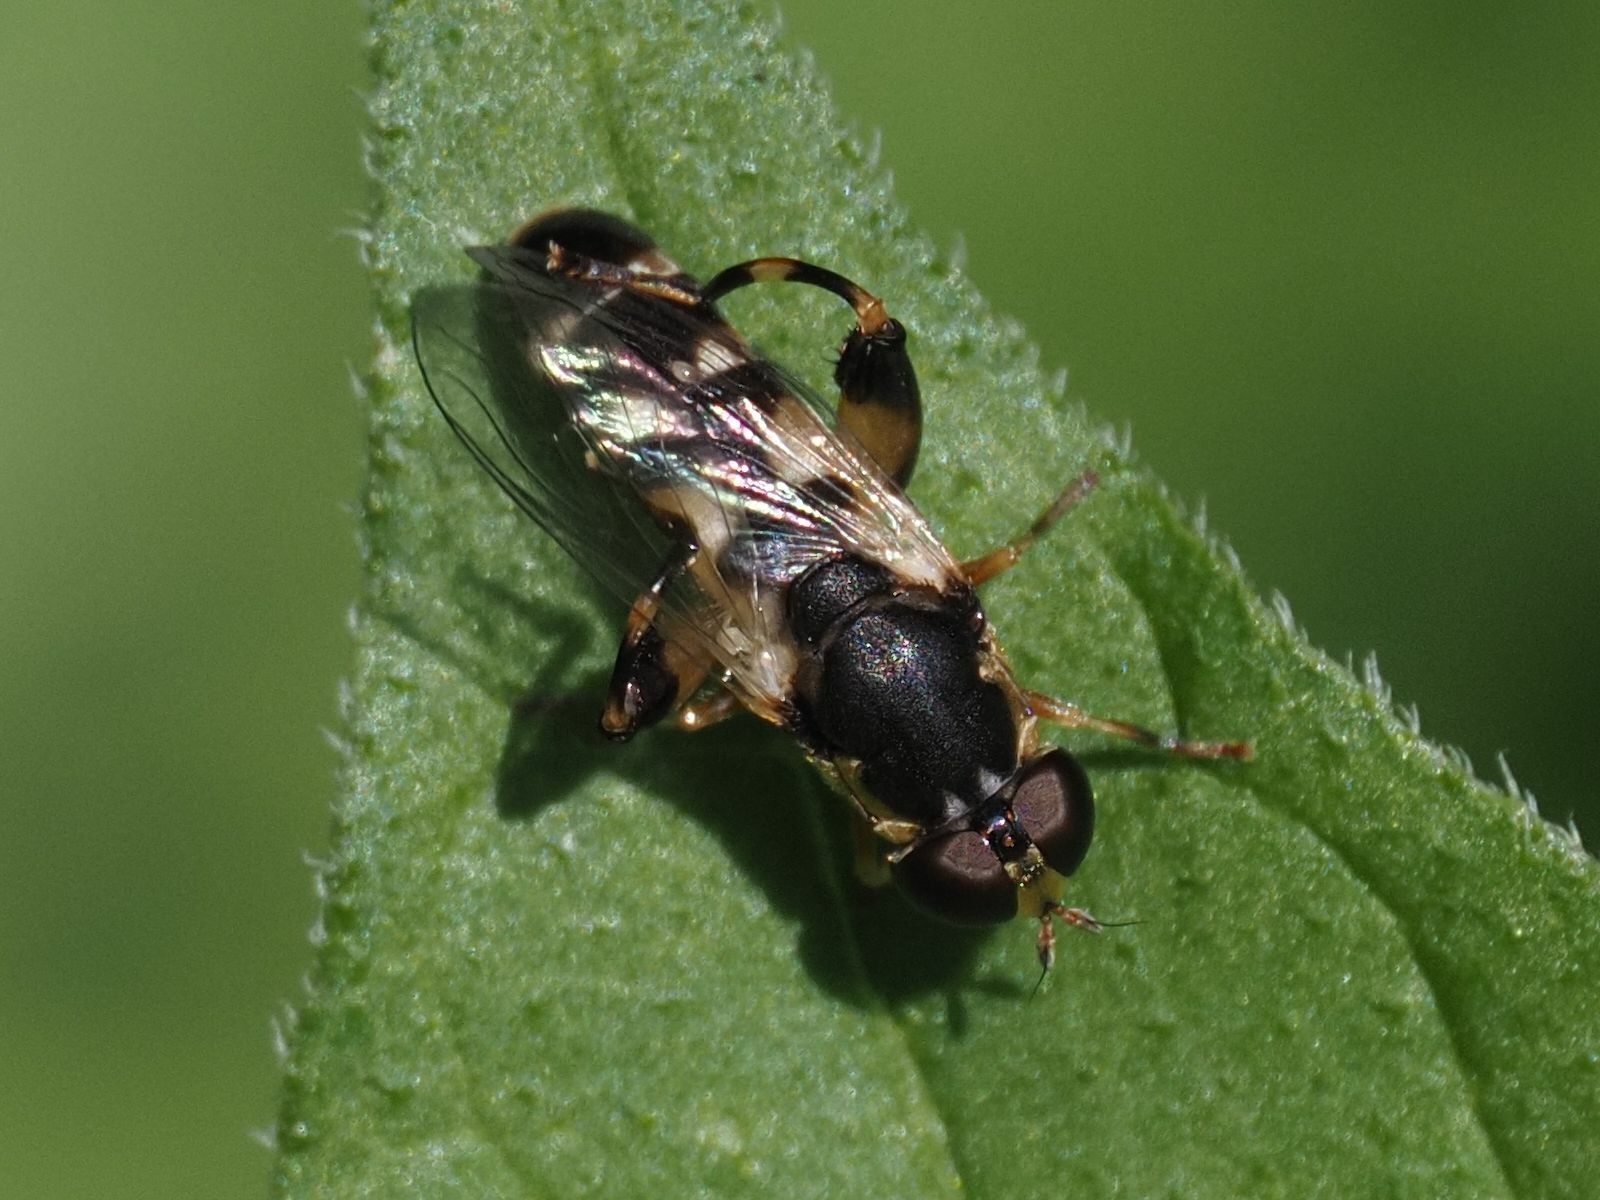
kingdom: Animalia
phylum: Arthropoda
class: Insecta
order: Diptera
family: Syrphidae
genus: Syritta
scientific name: Syritta pipiens
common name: Hover fly
